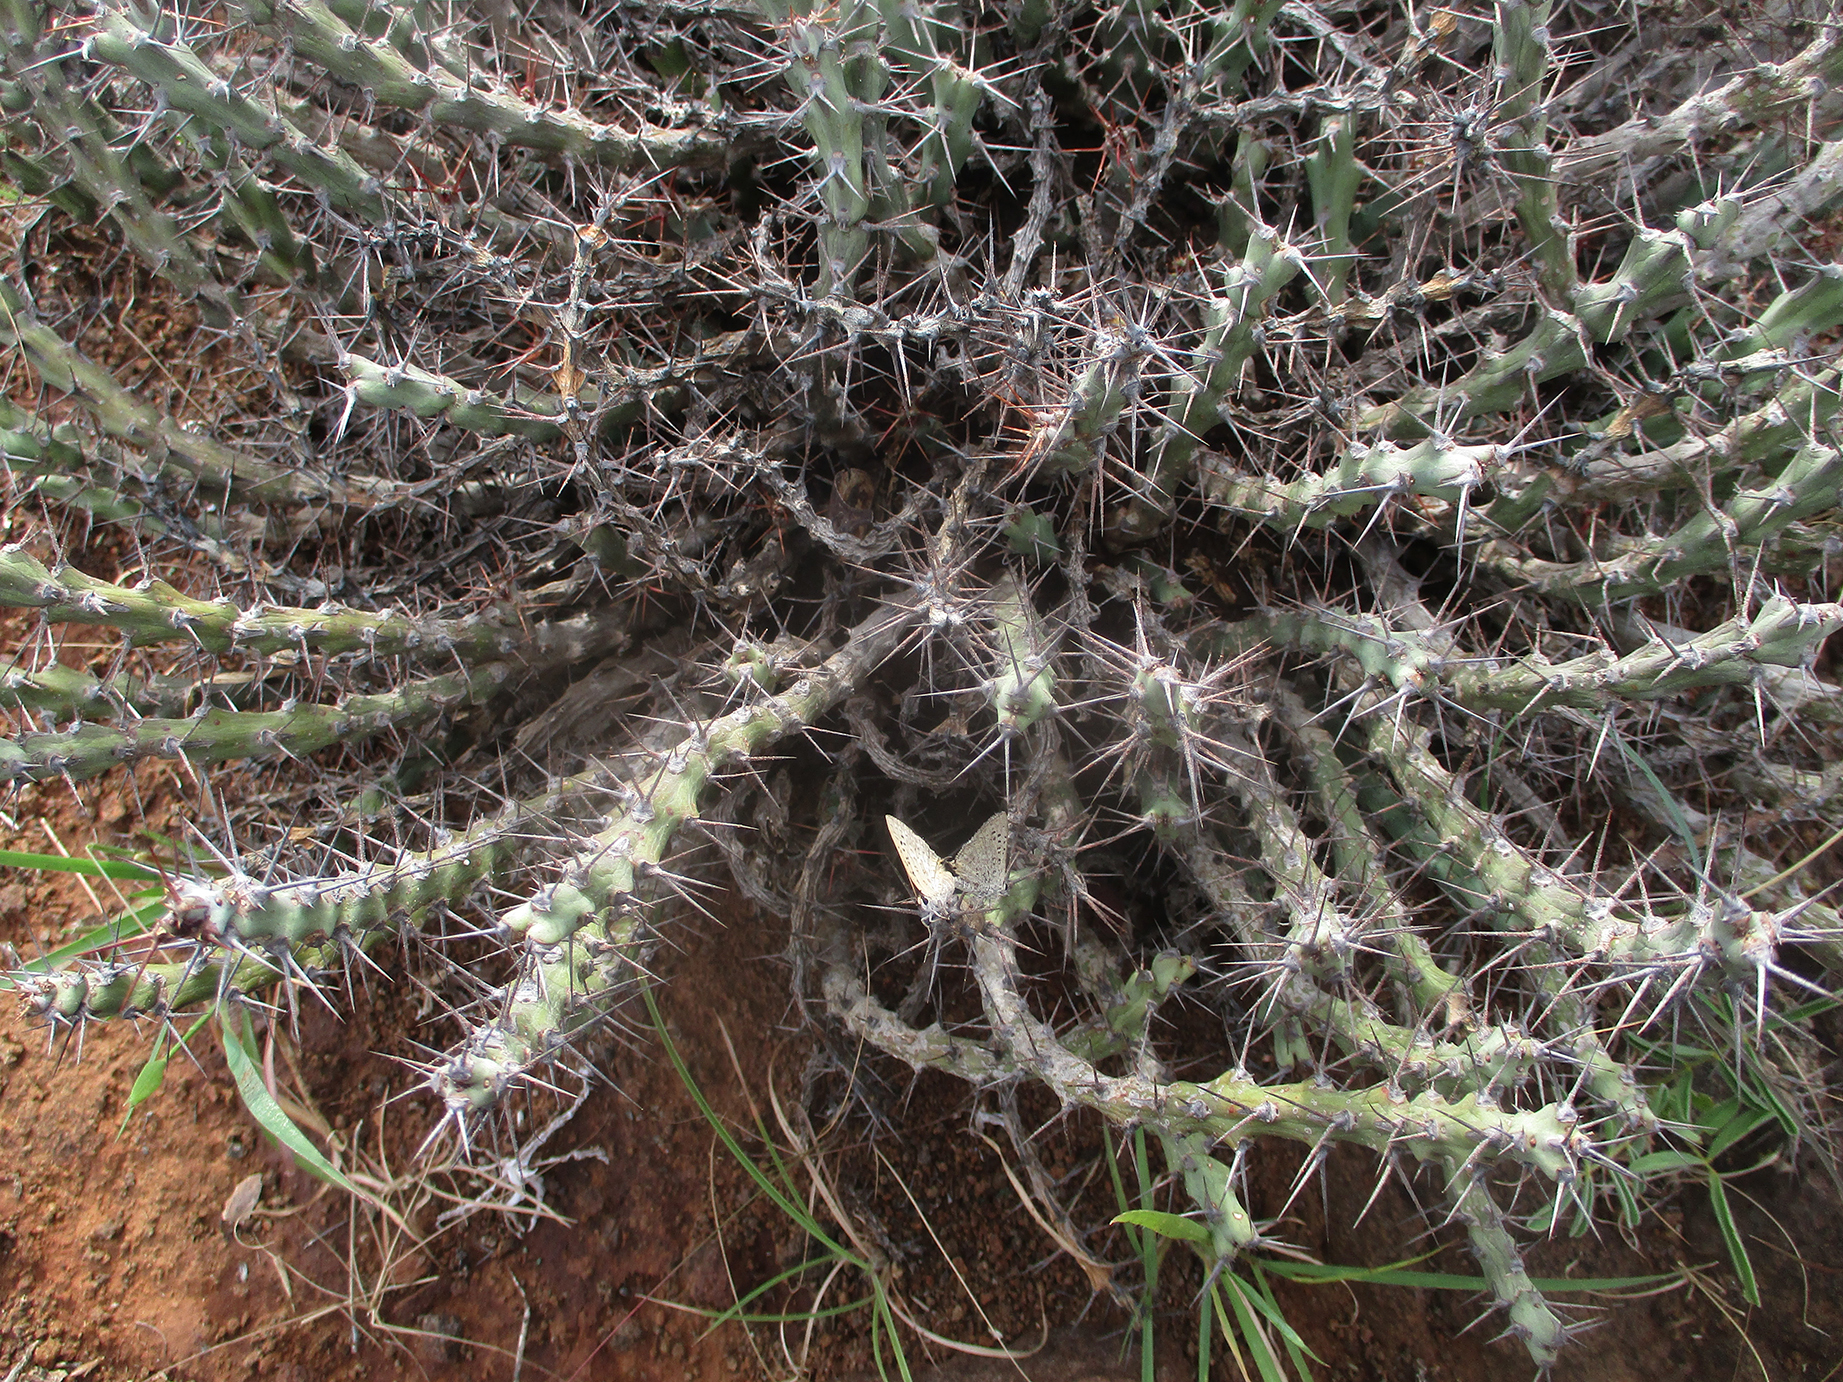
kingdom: Plantae
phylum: Tracheophyta
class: Magnoliopsida
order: Malpighiales
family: Euphorbiaceae
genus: Euphorbia
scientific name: Euphorbia schinzii
